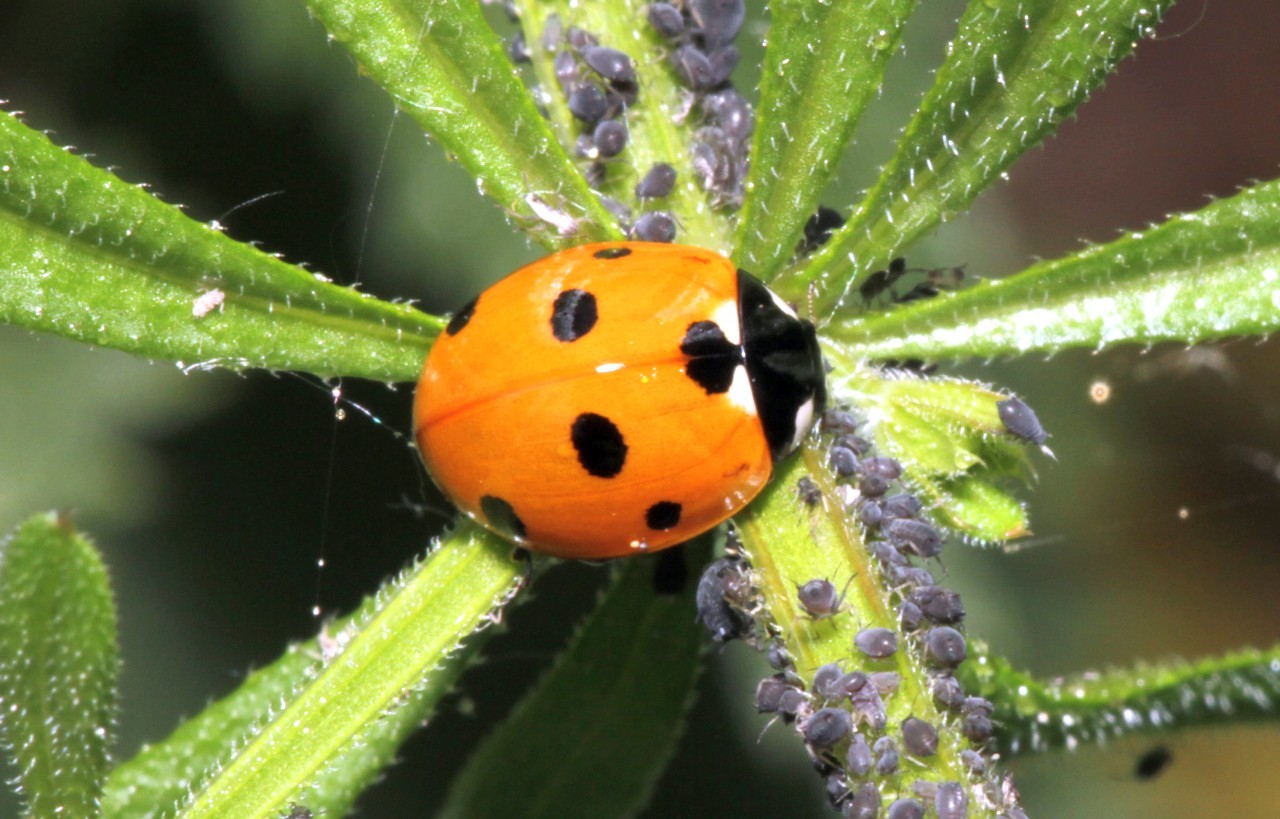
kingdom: Animalia
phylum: Arthropoda
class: Insecta
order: Coleoptera
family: Coccinellidae
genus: Coccinella
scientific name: Coccinella septempunctata
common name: Sevenspotted lady beetle
